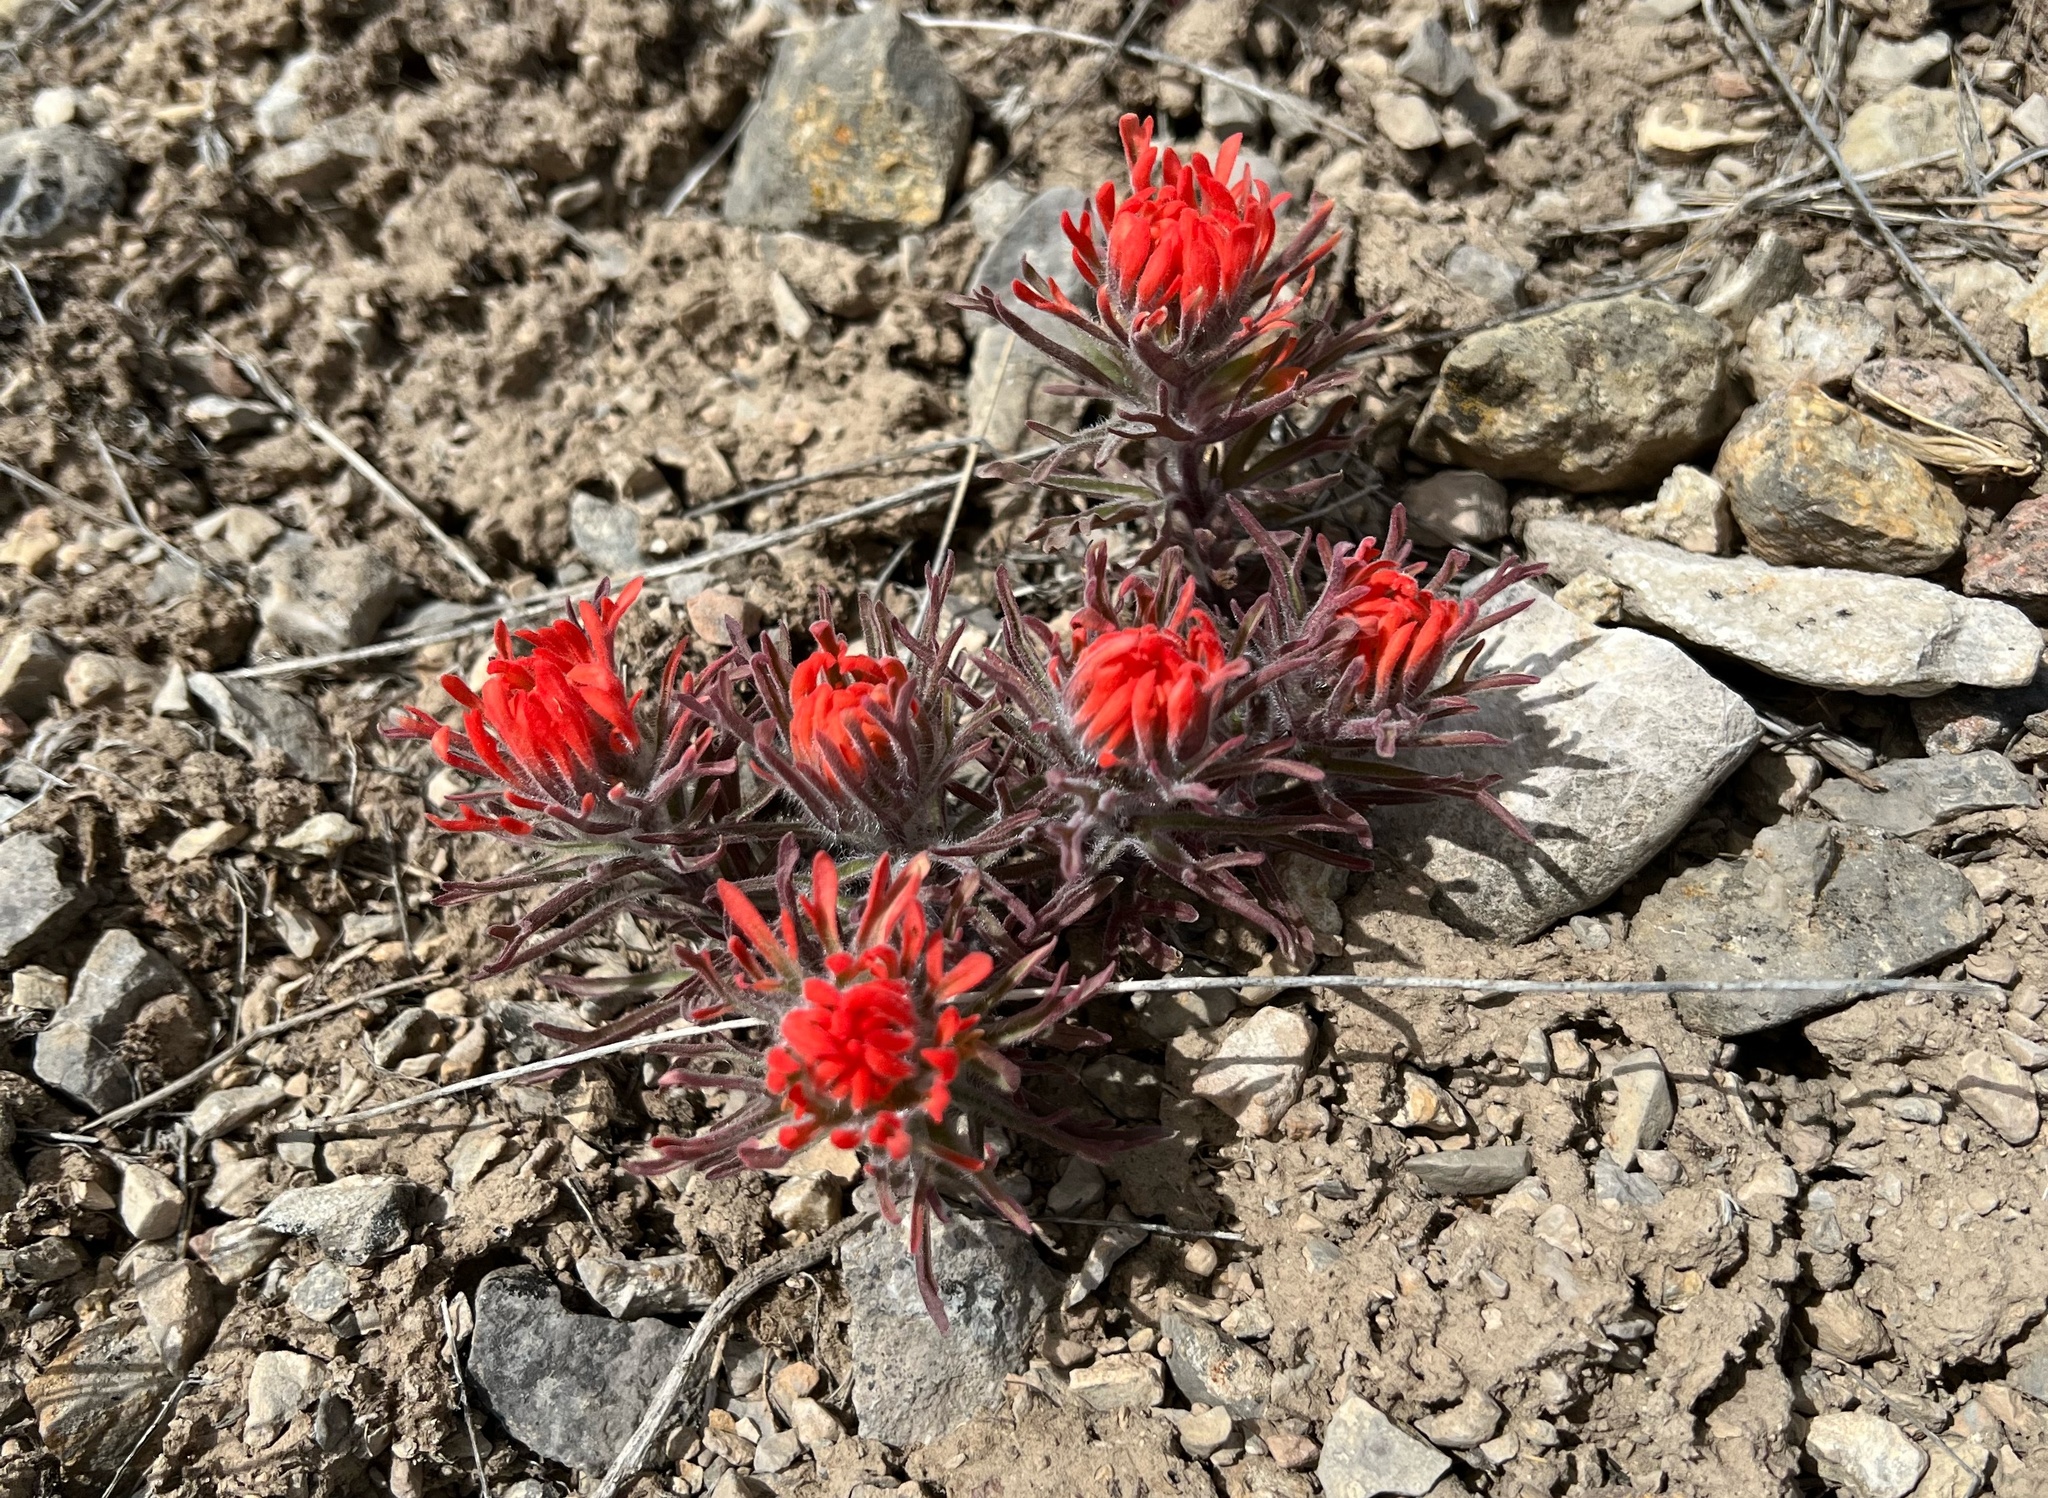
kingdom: Plantae
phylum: Tracheophyta
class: Magnoliopsida
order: Lamiales
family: Orobanchaceae
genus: Castilleja
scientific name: Castilleja chromosa
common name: Desert paintbrush
